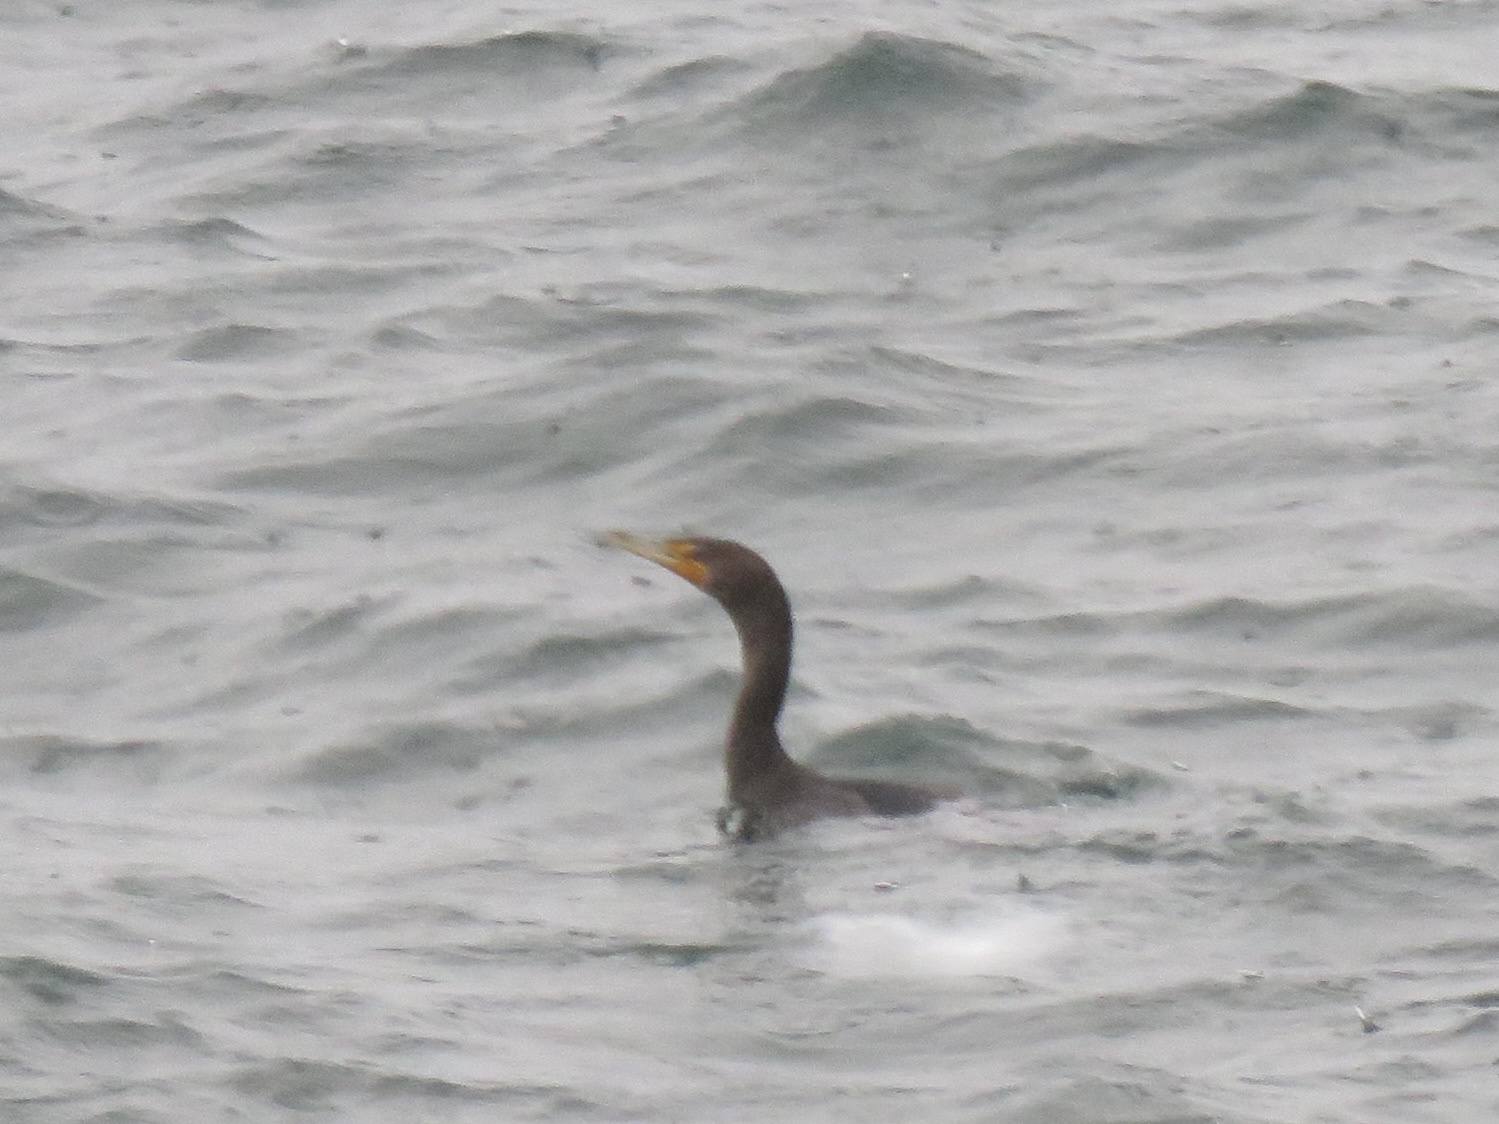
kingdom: Animalia
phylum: Chordata
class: Aves
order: Suliformes
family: Phalacrocoracidae
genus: Phalacrocorax
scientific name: Phalacrocorax auritus
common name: Double-crested cormorant
